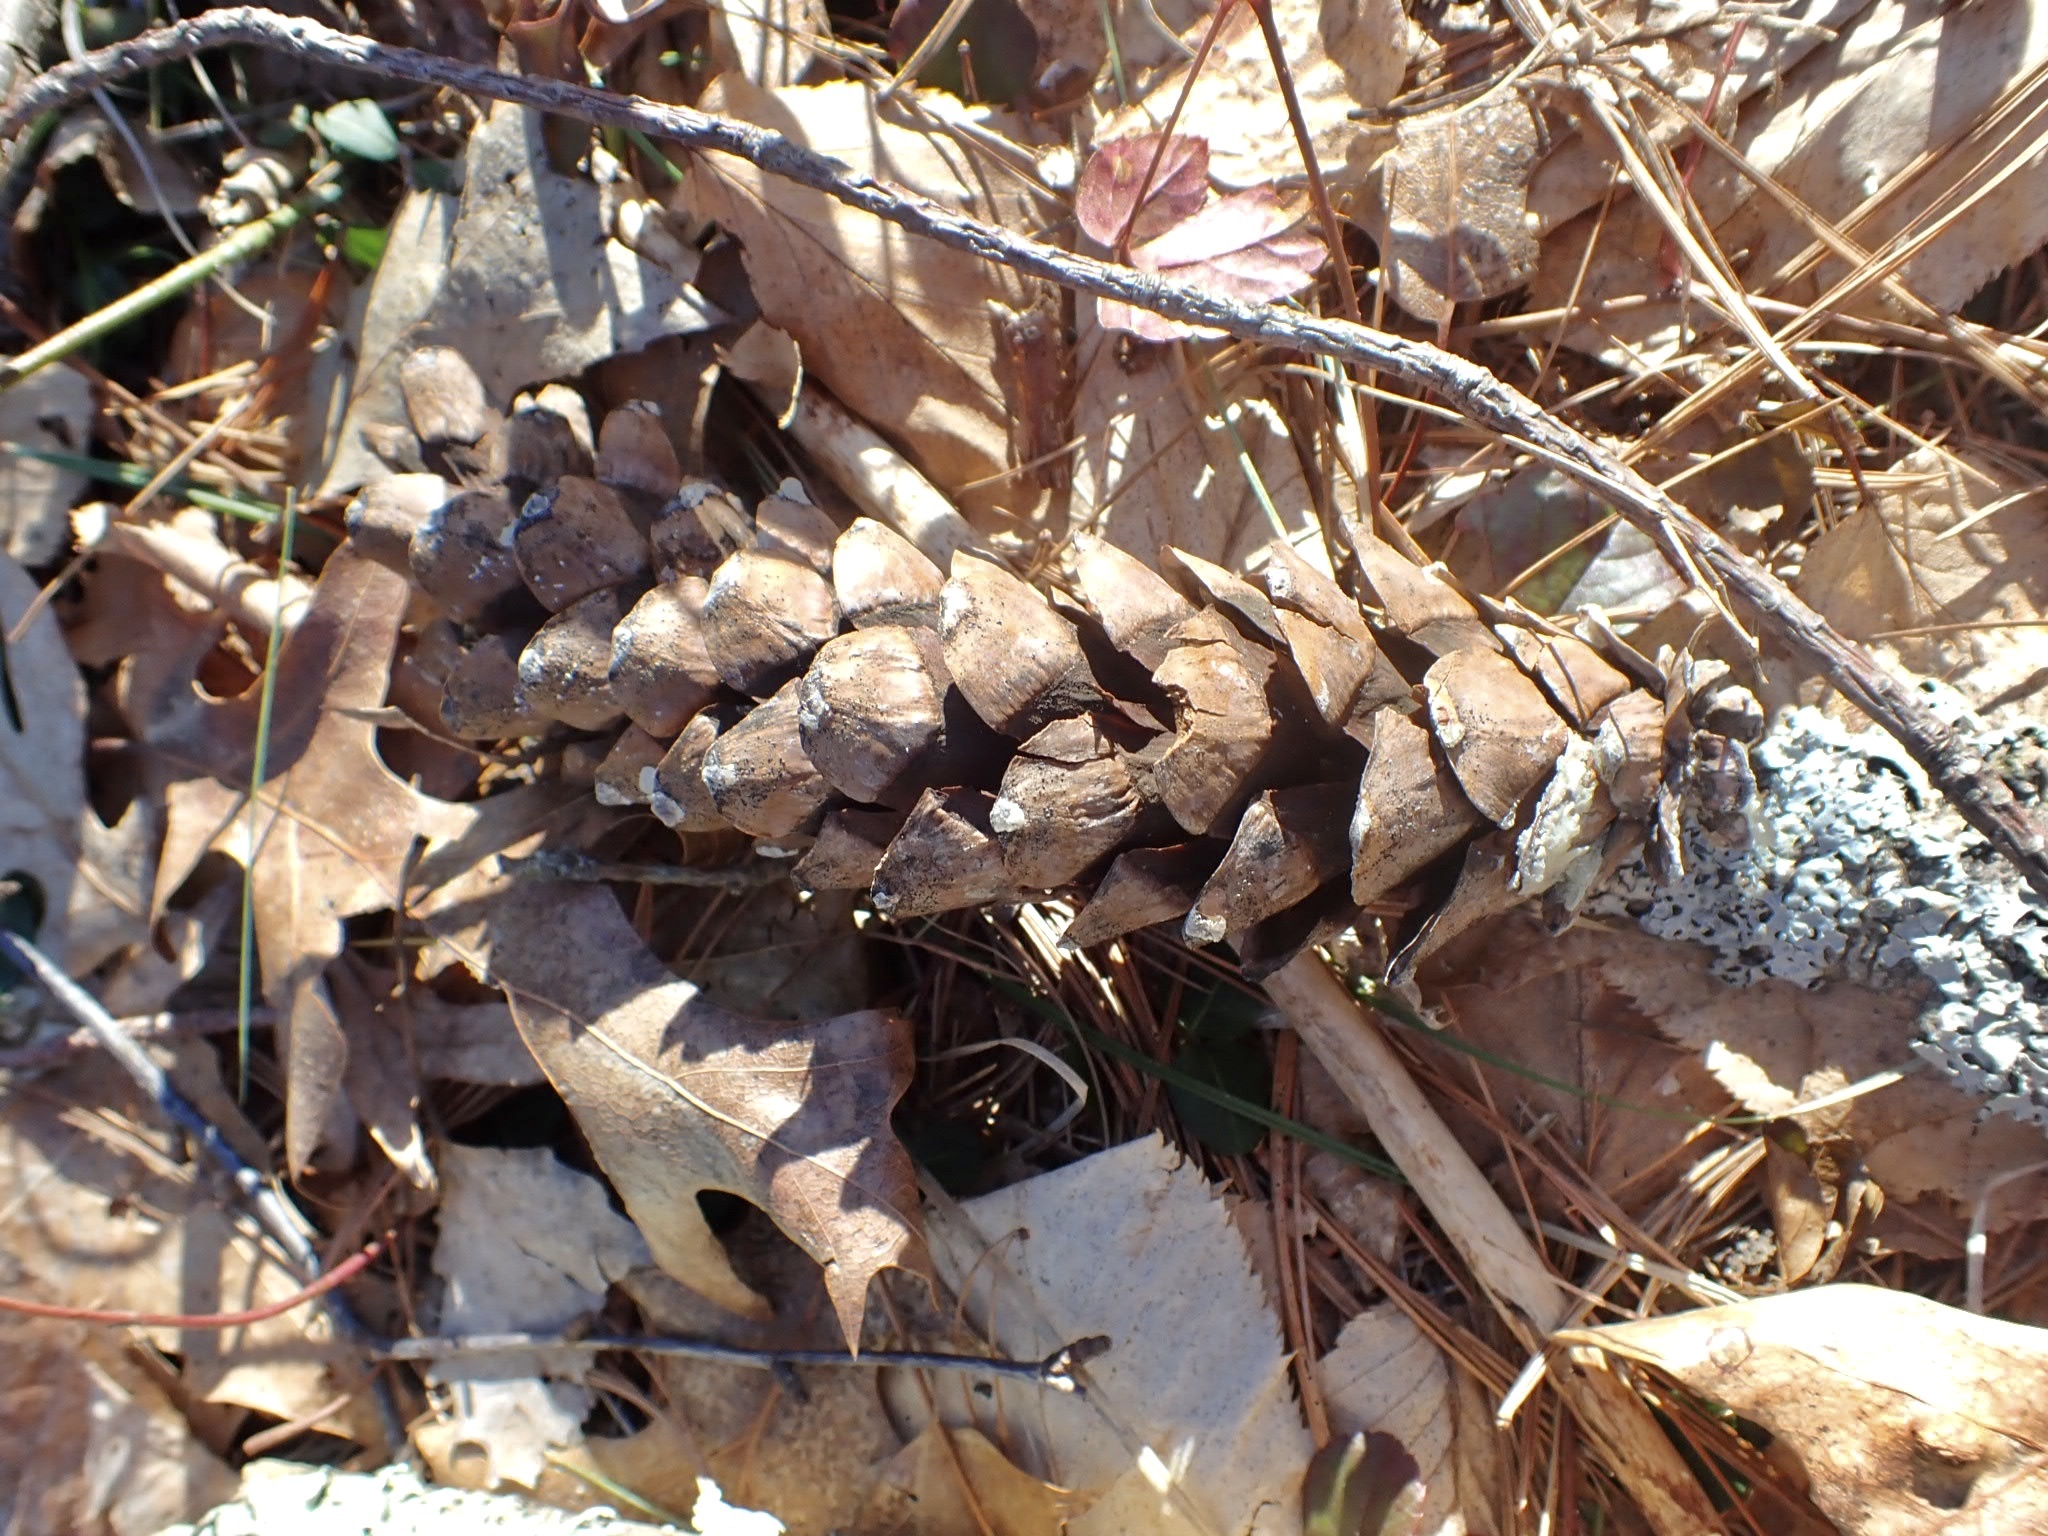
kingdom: Plantae
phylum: Tracheophyta
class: Pinopsida
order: Pinales
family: Pinaceae
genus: Pinus
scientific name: Pinus strobus
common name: Weymouth pine
